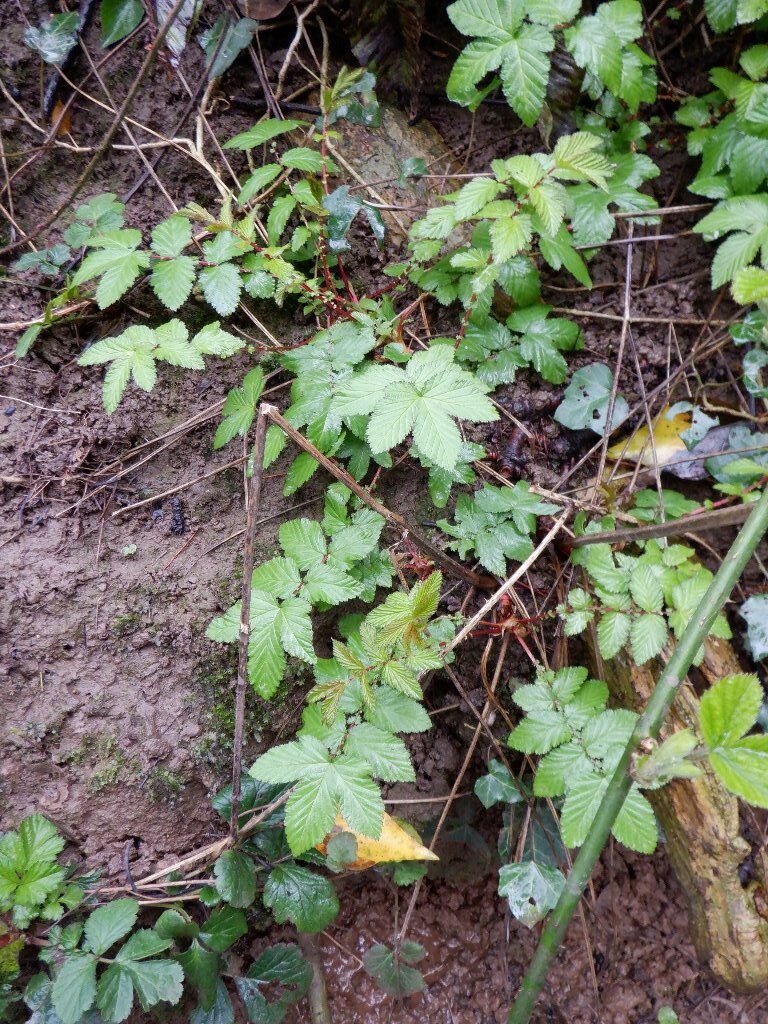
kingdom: Plantae
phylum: Tracheophyta
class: Magnoliopsida
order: Rosales
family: Rosaceae
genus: Filipendula
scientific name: Filipendula ulmaria
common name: Meadowsweet
